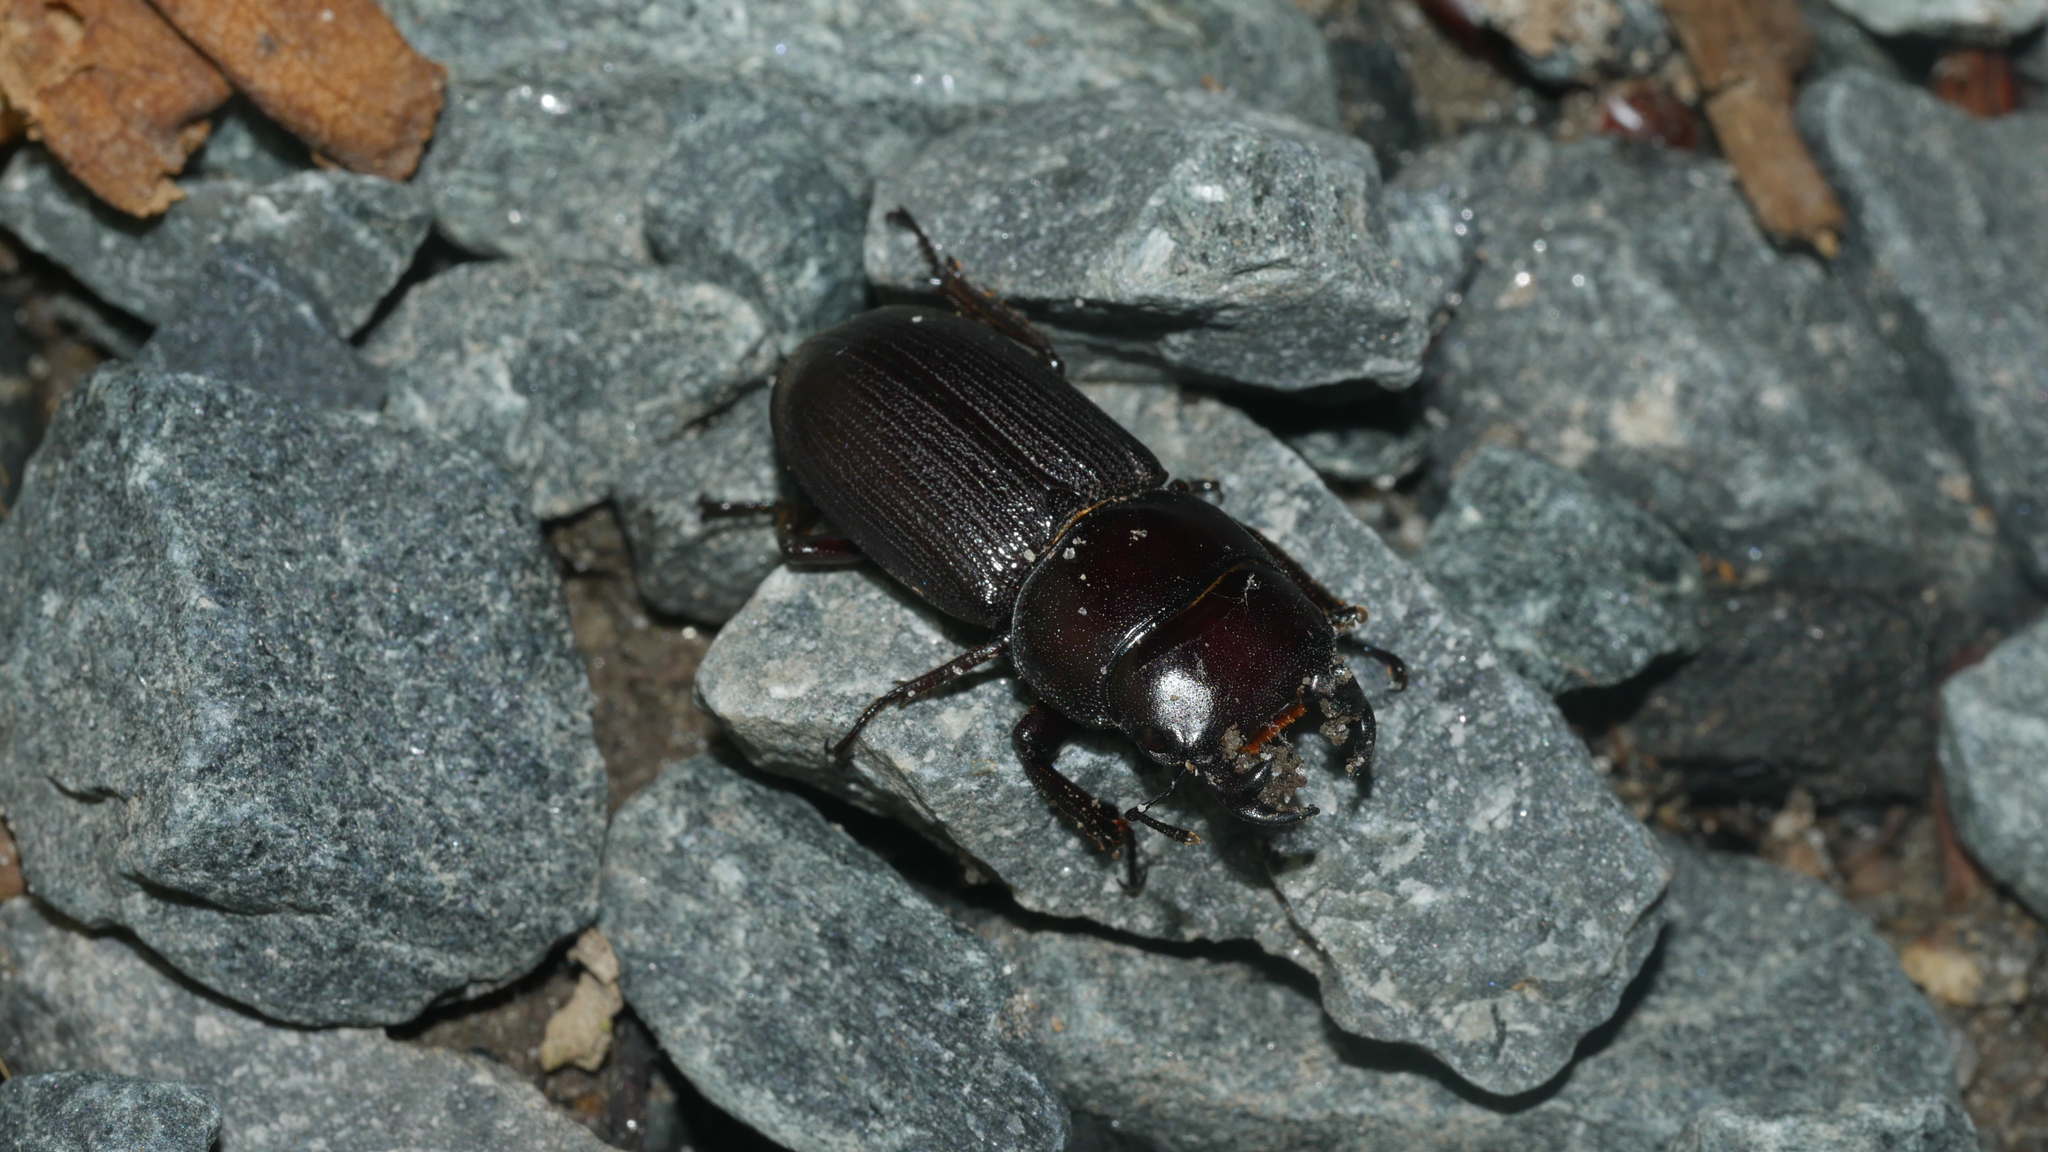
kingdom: Animalia
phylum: Arthropoda
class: Insecta
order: Coleoptera
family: Lucanidae
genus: Dorcus
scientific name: Dorcus parallelus
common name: Antelope beetle
